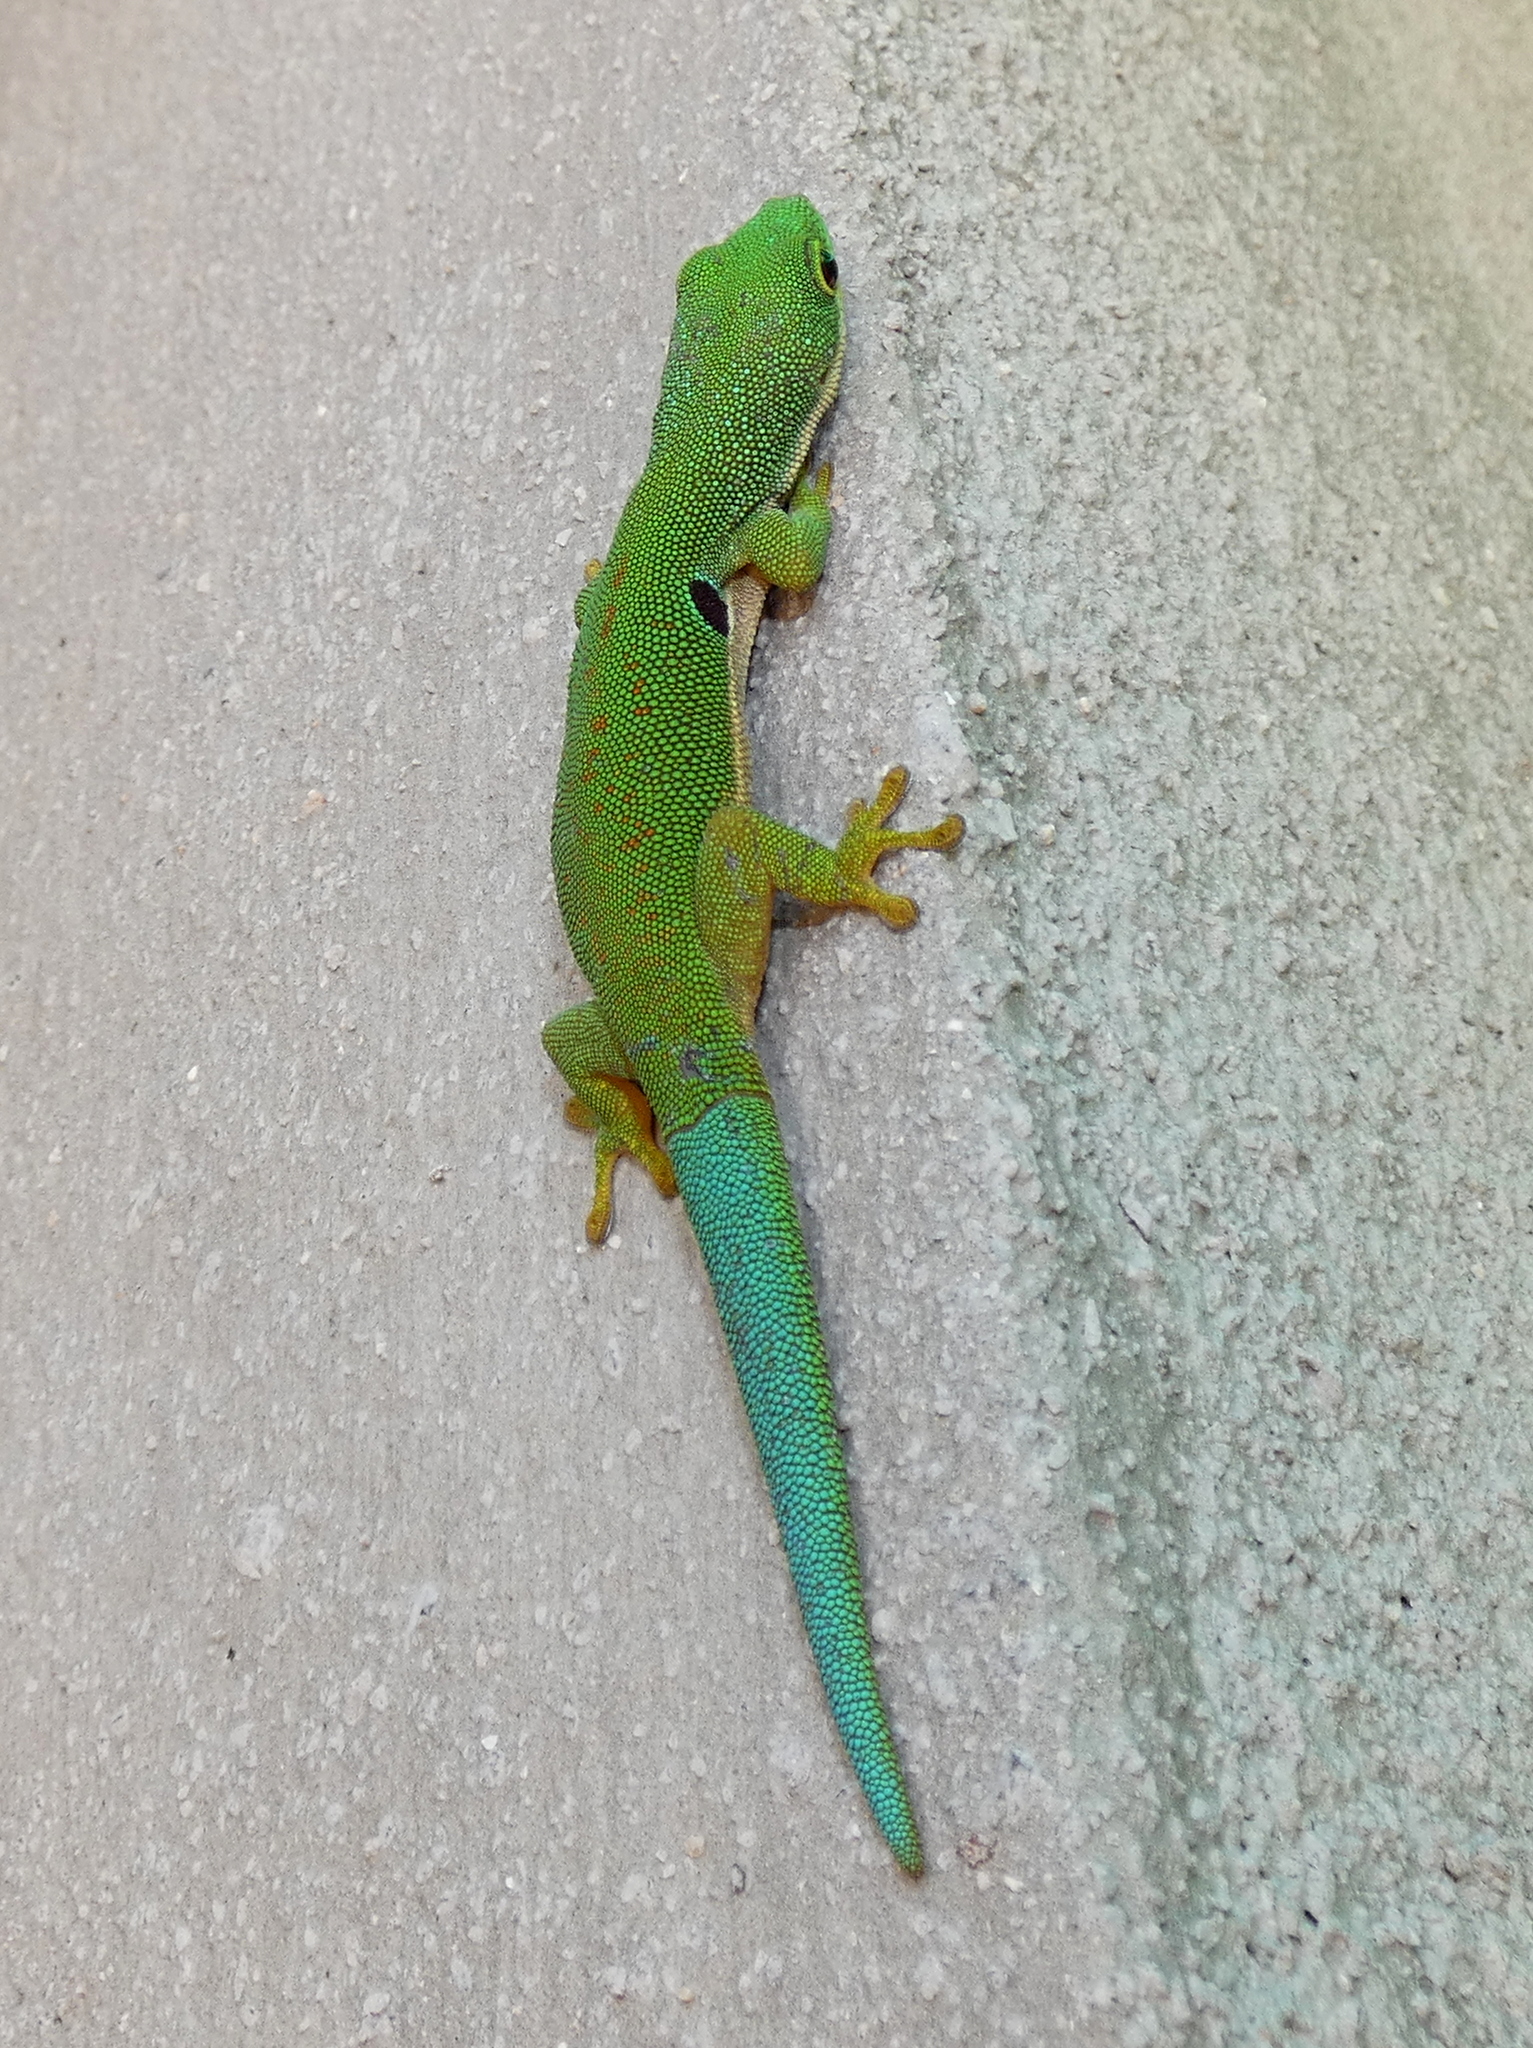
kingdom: Animalia
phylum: Chordata
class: Squamata
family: Gekkonidae
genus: Phelsuma
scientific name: Phelsuma quadriocellata
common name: Peacock day gecko
